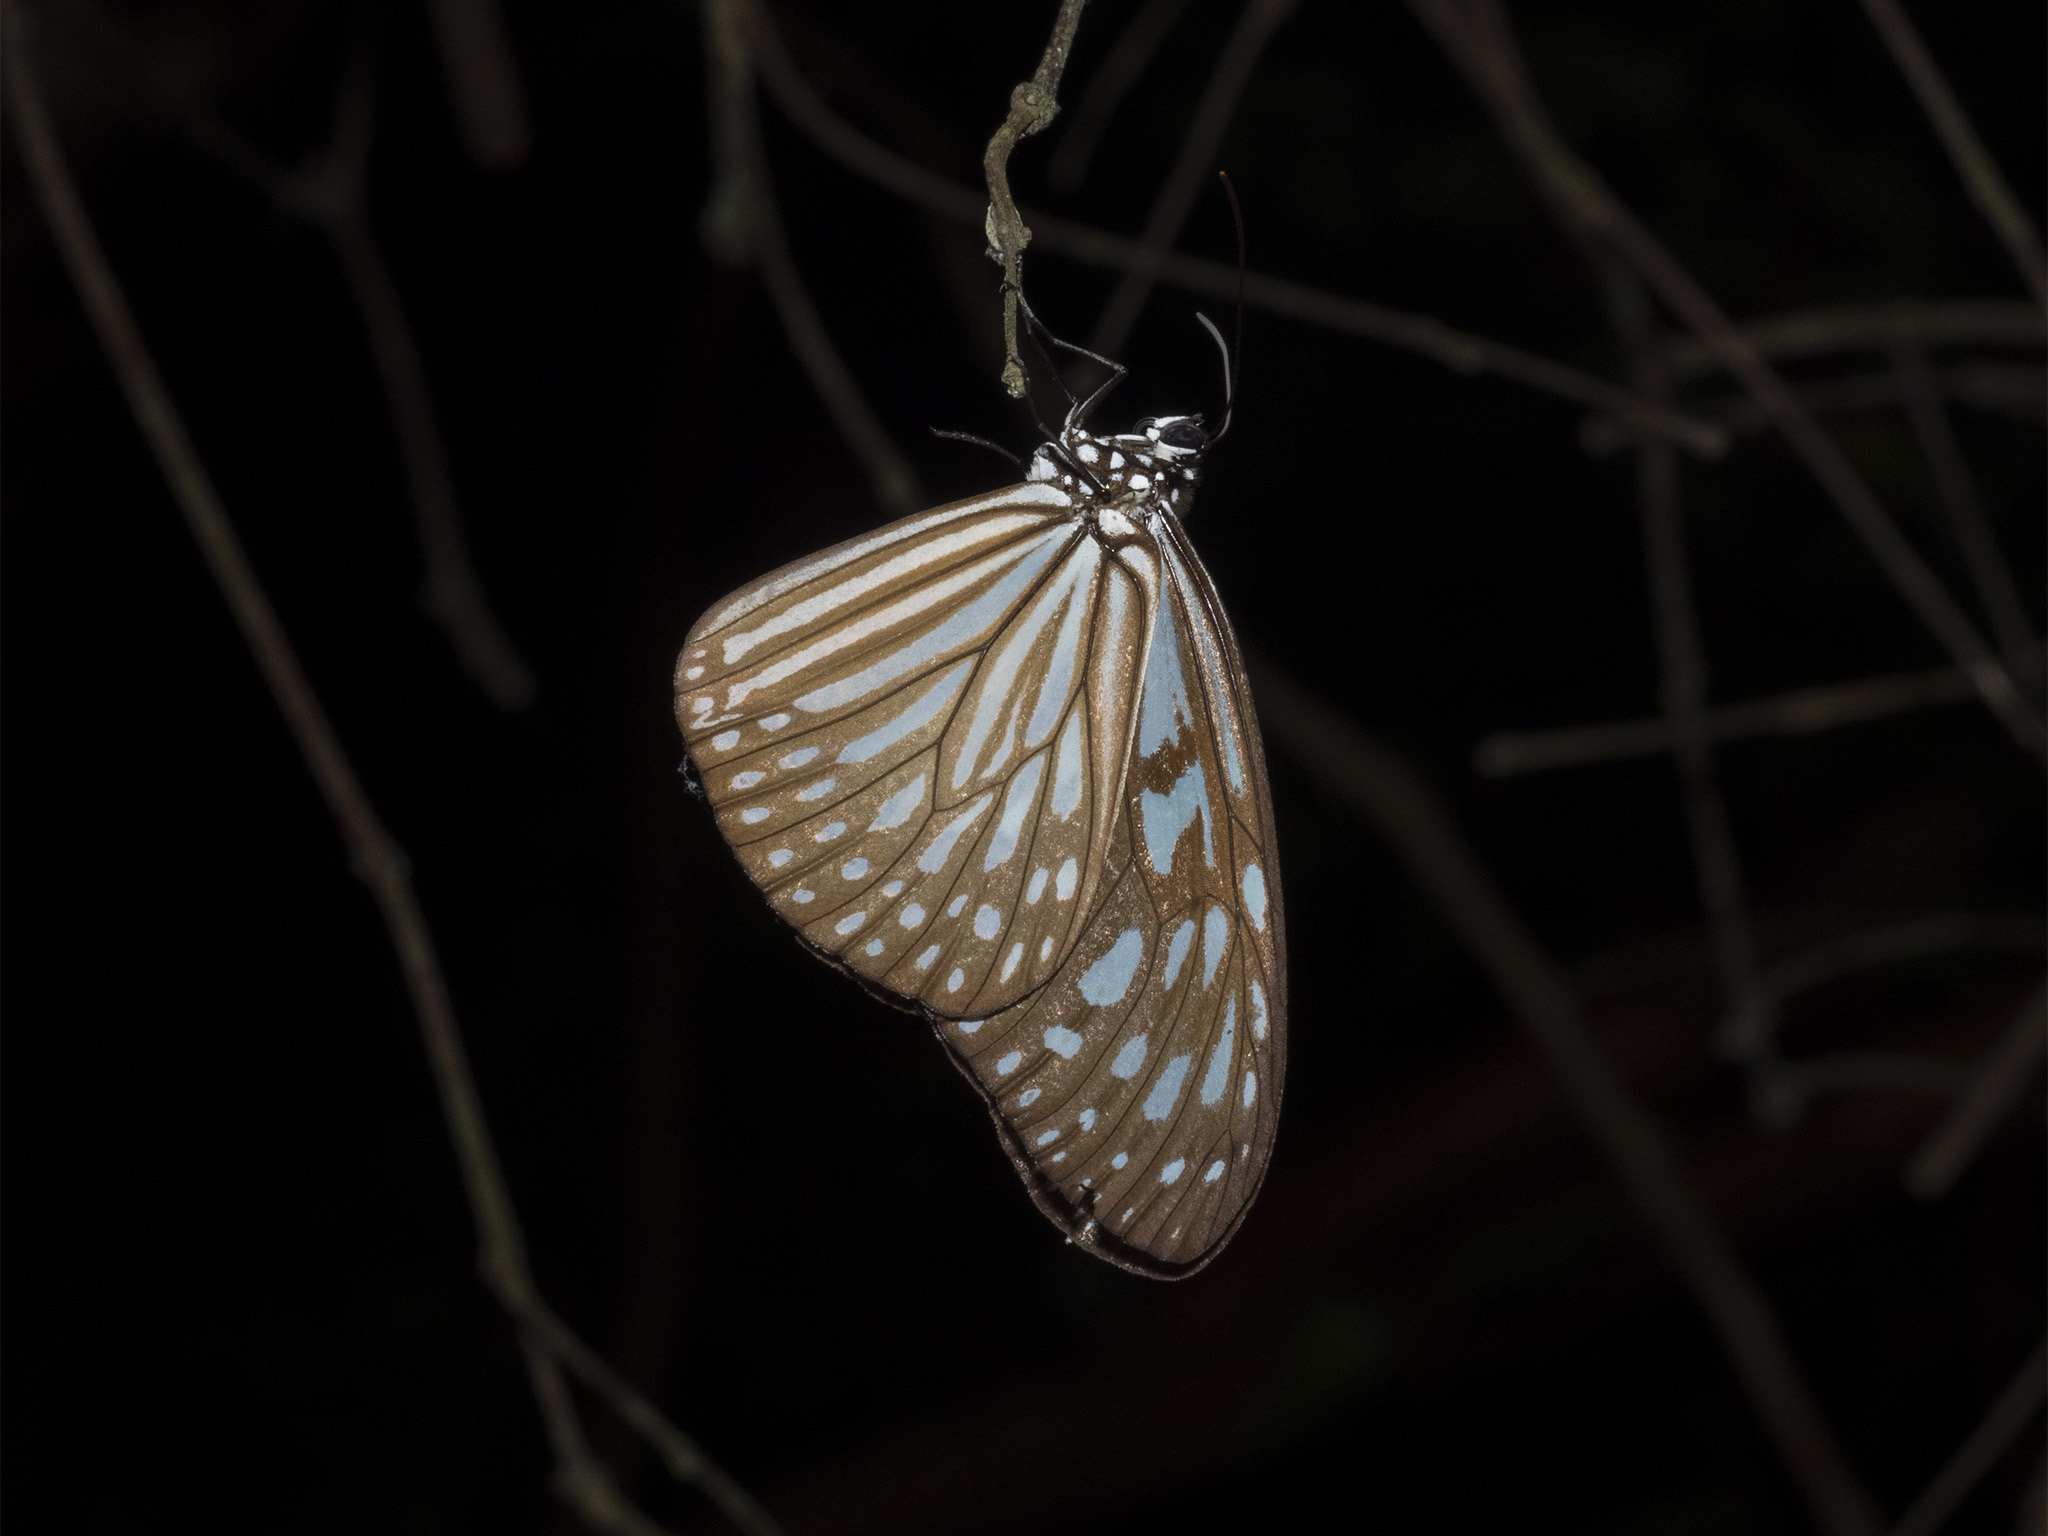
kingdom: Animalia
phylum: Arthropoda
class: Insecta
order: Lepidoptera
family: Nymphalidae
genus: Ideopsis
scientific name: Ideopsis vulgaris
